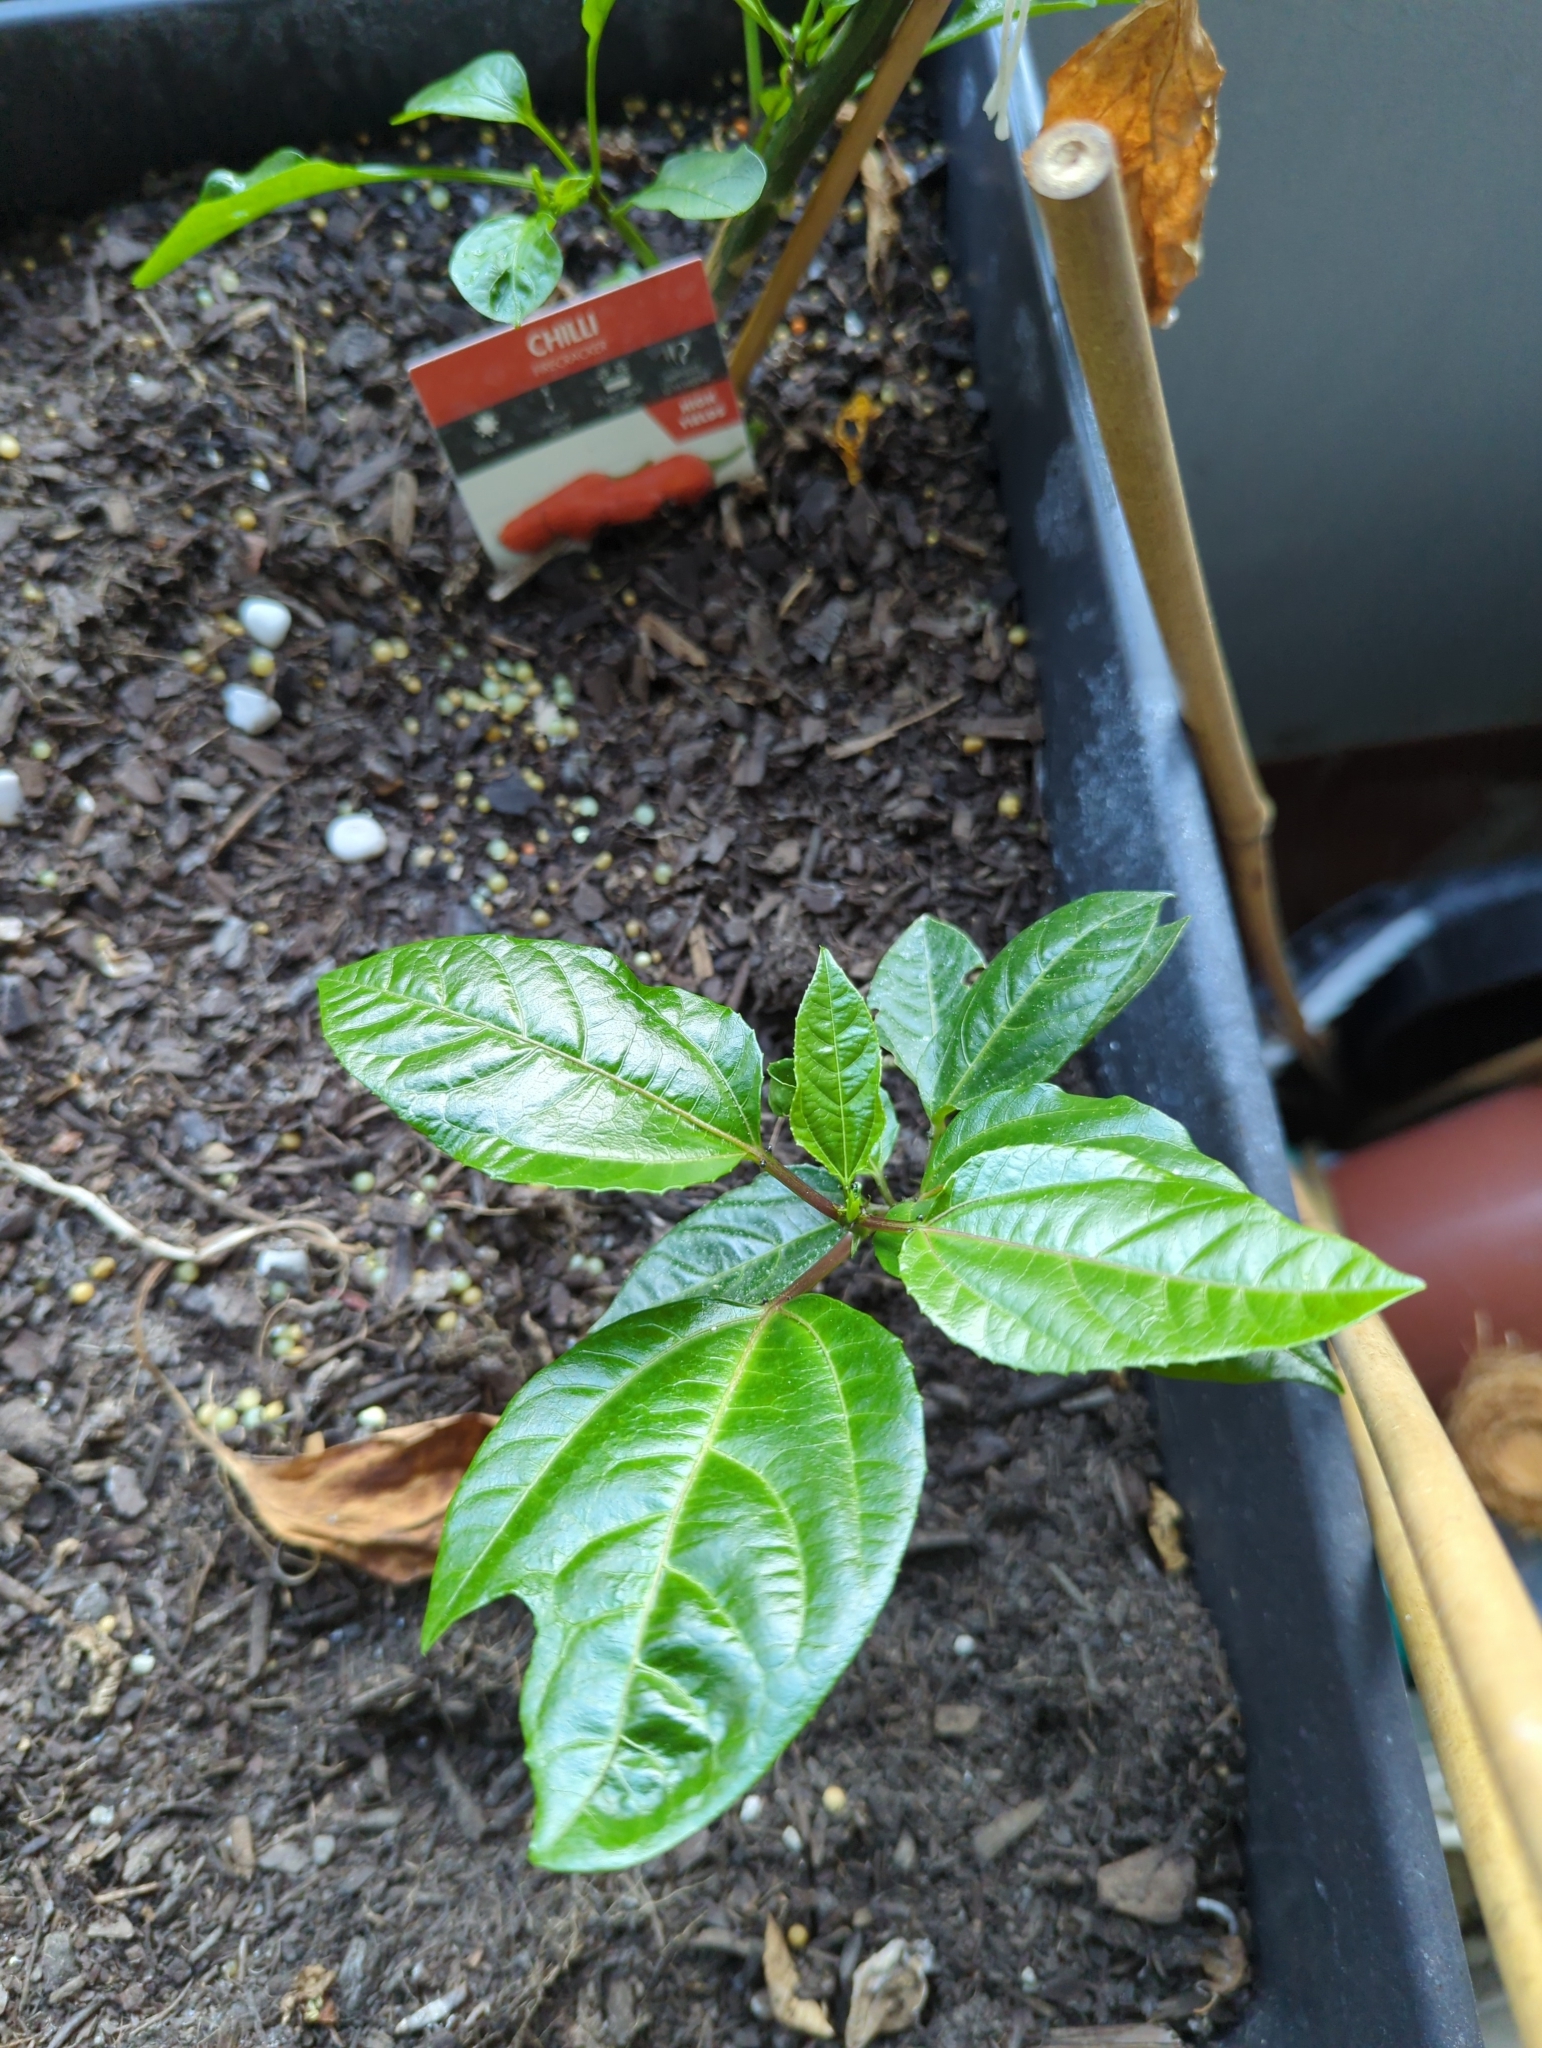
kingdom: Plantae
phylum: Tracheophyta
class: Magnoliopsida
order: Malpighiales
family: Passifloraceae
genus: Passiflora
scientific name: Passiflora edulis
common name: Purple granadilla
